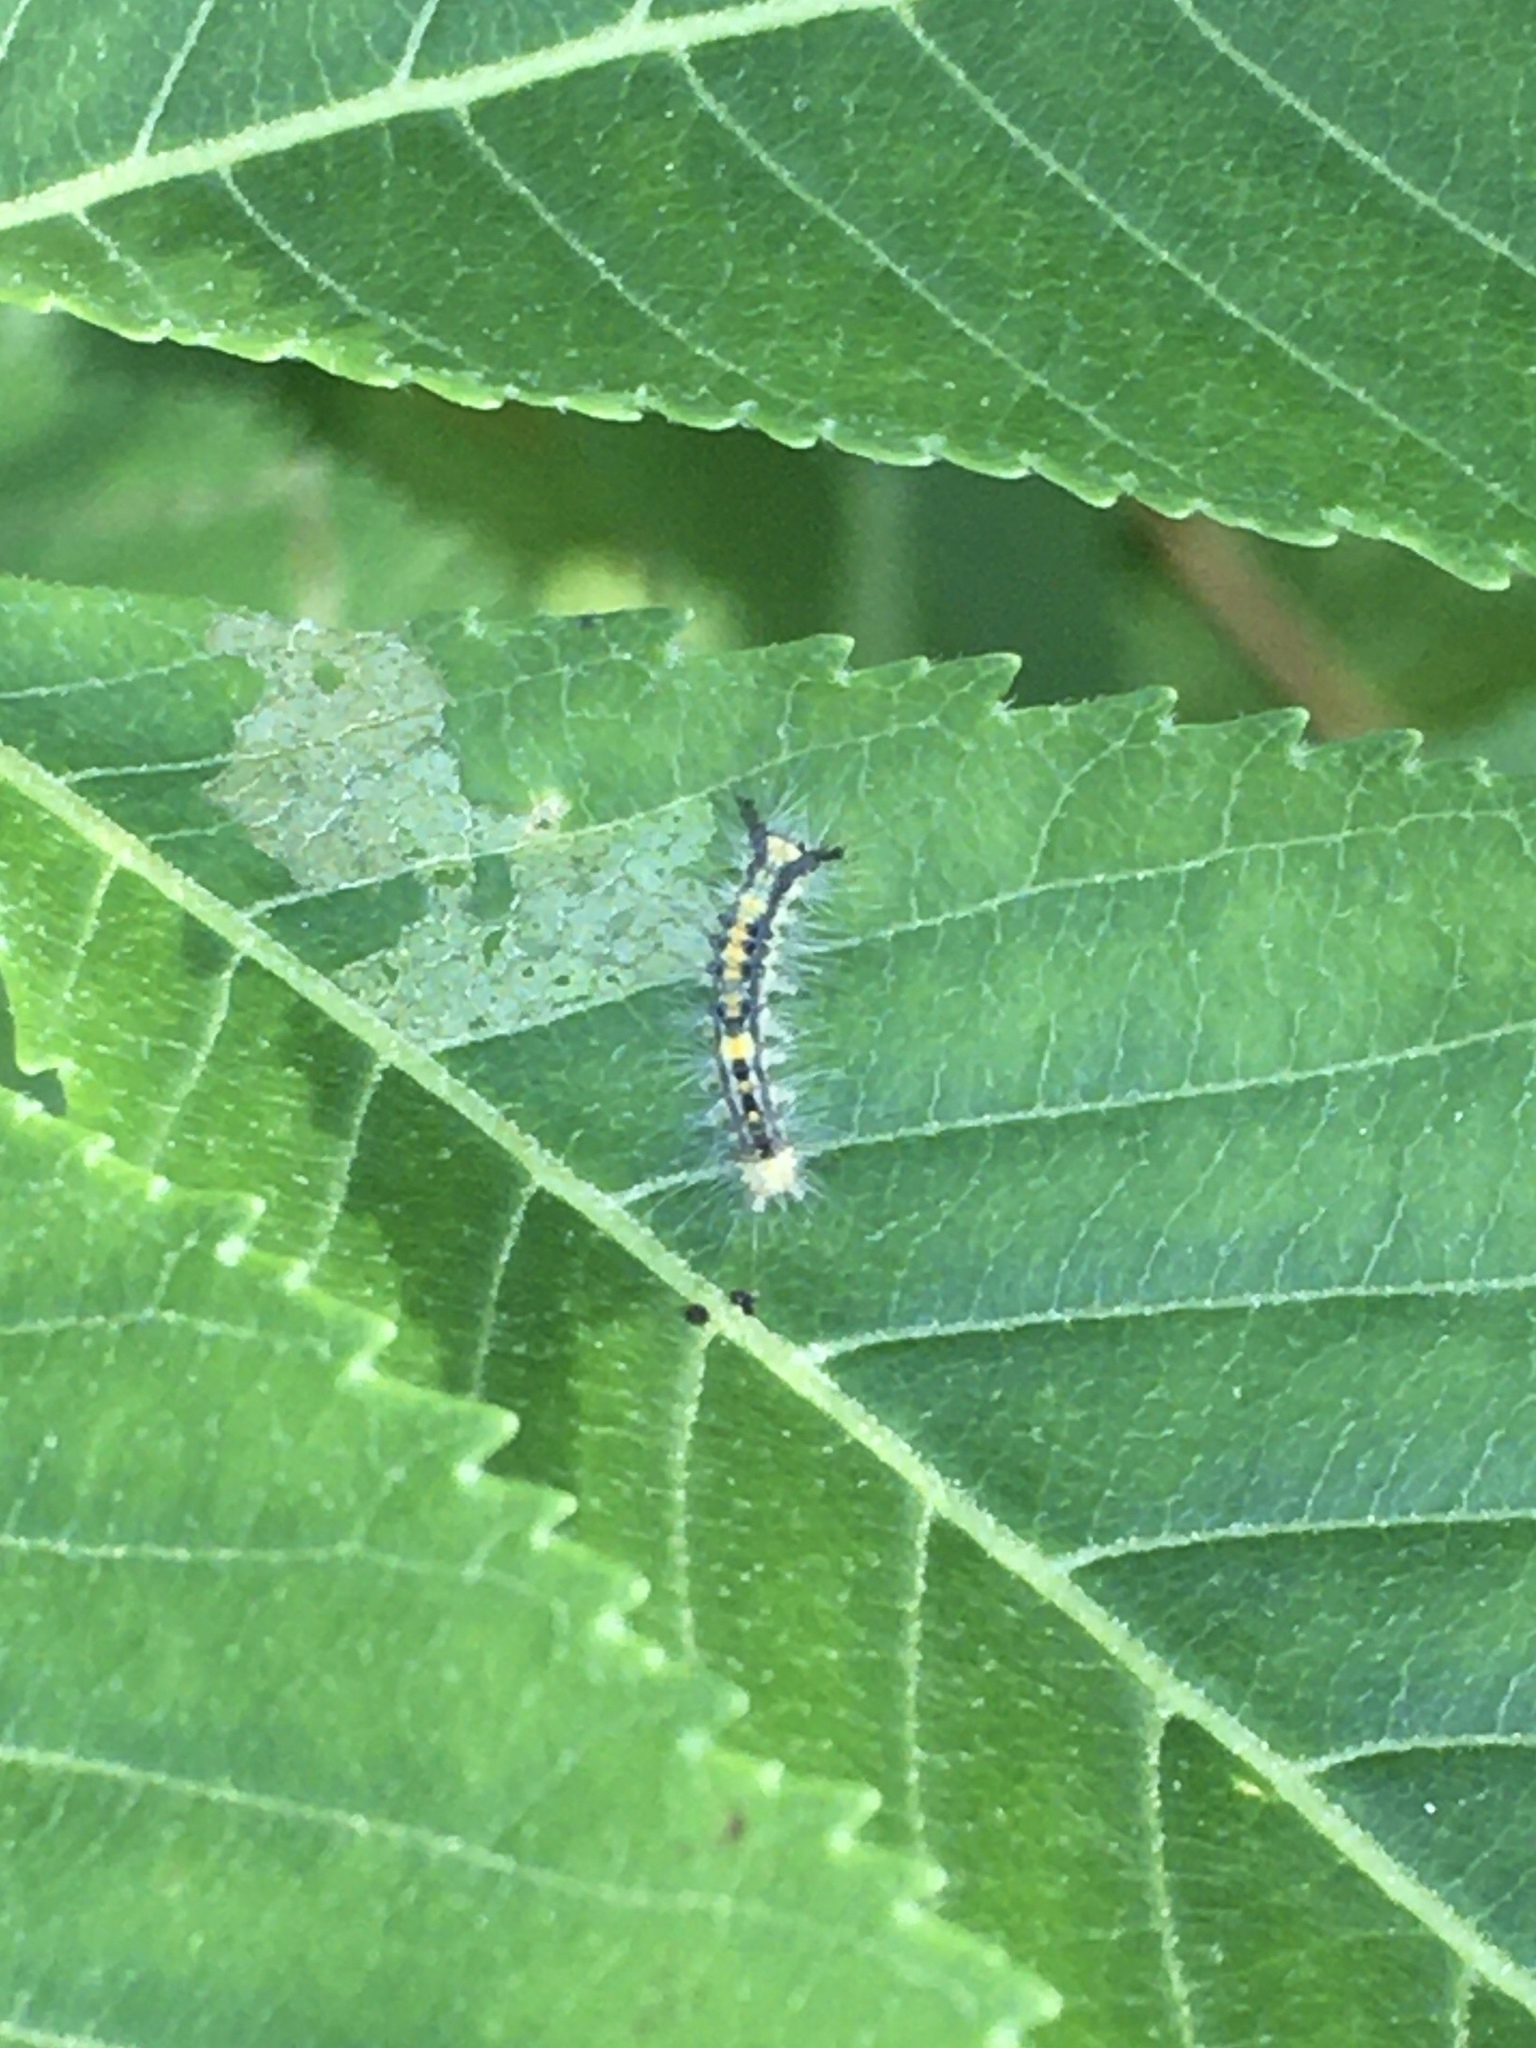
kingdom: Animalia
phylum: Arthropoda
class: Insecta
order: Lepidoptera
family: Erebidae
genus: Orgyia
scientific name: Orgyia leucostigma
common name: White-marked tussock moth
